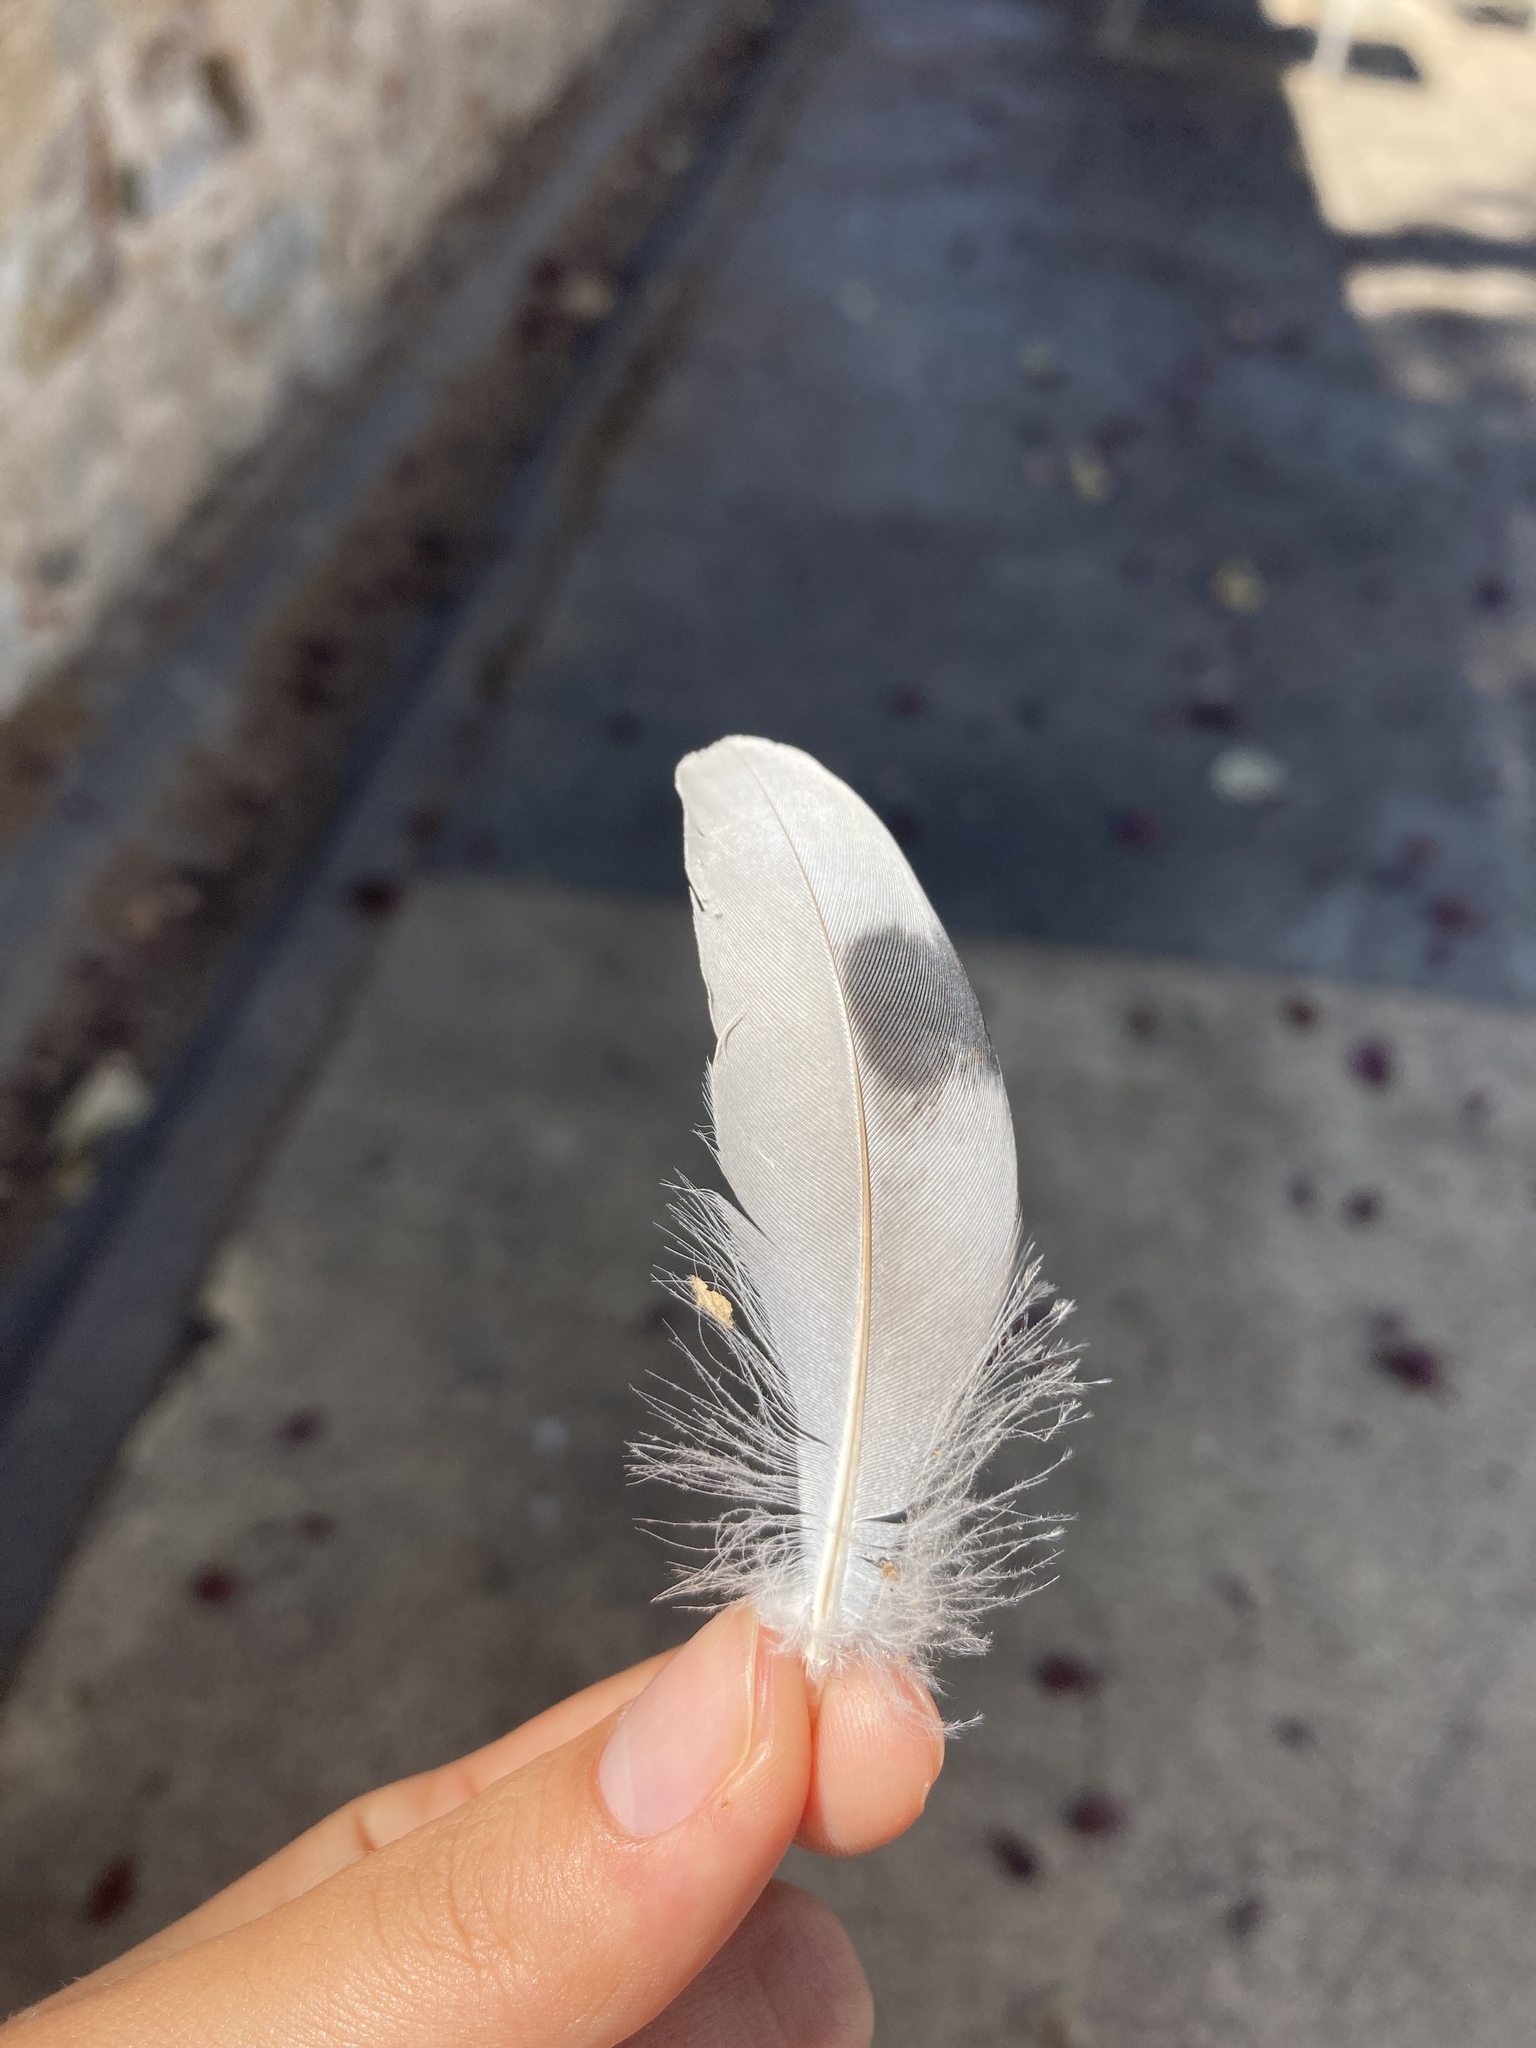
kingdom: Animalia
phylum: Chordata
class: Aves
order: Columbiformes
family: Columbidae
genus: Columba
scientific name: Columba livia
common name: Rock pigeon
